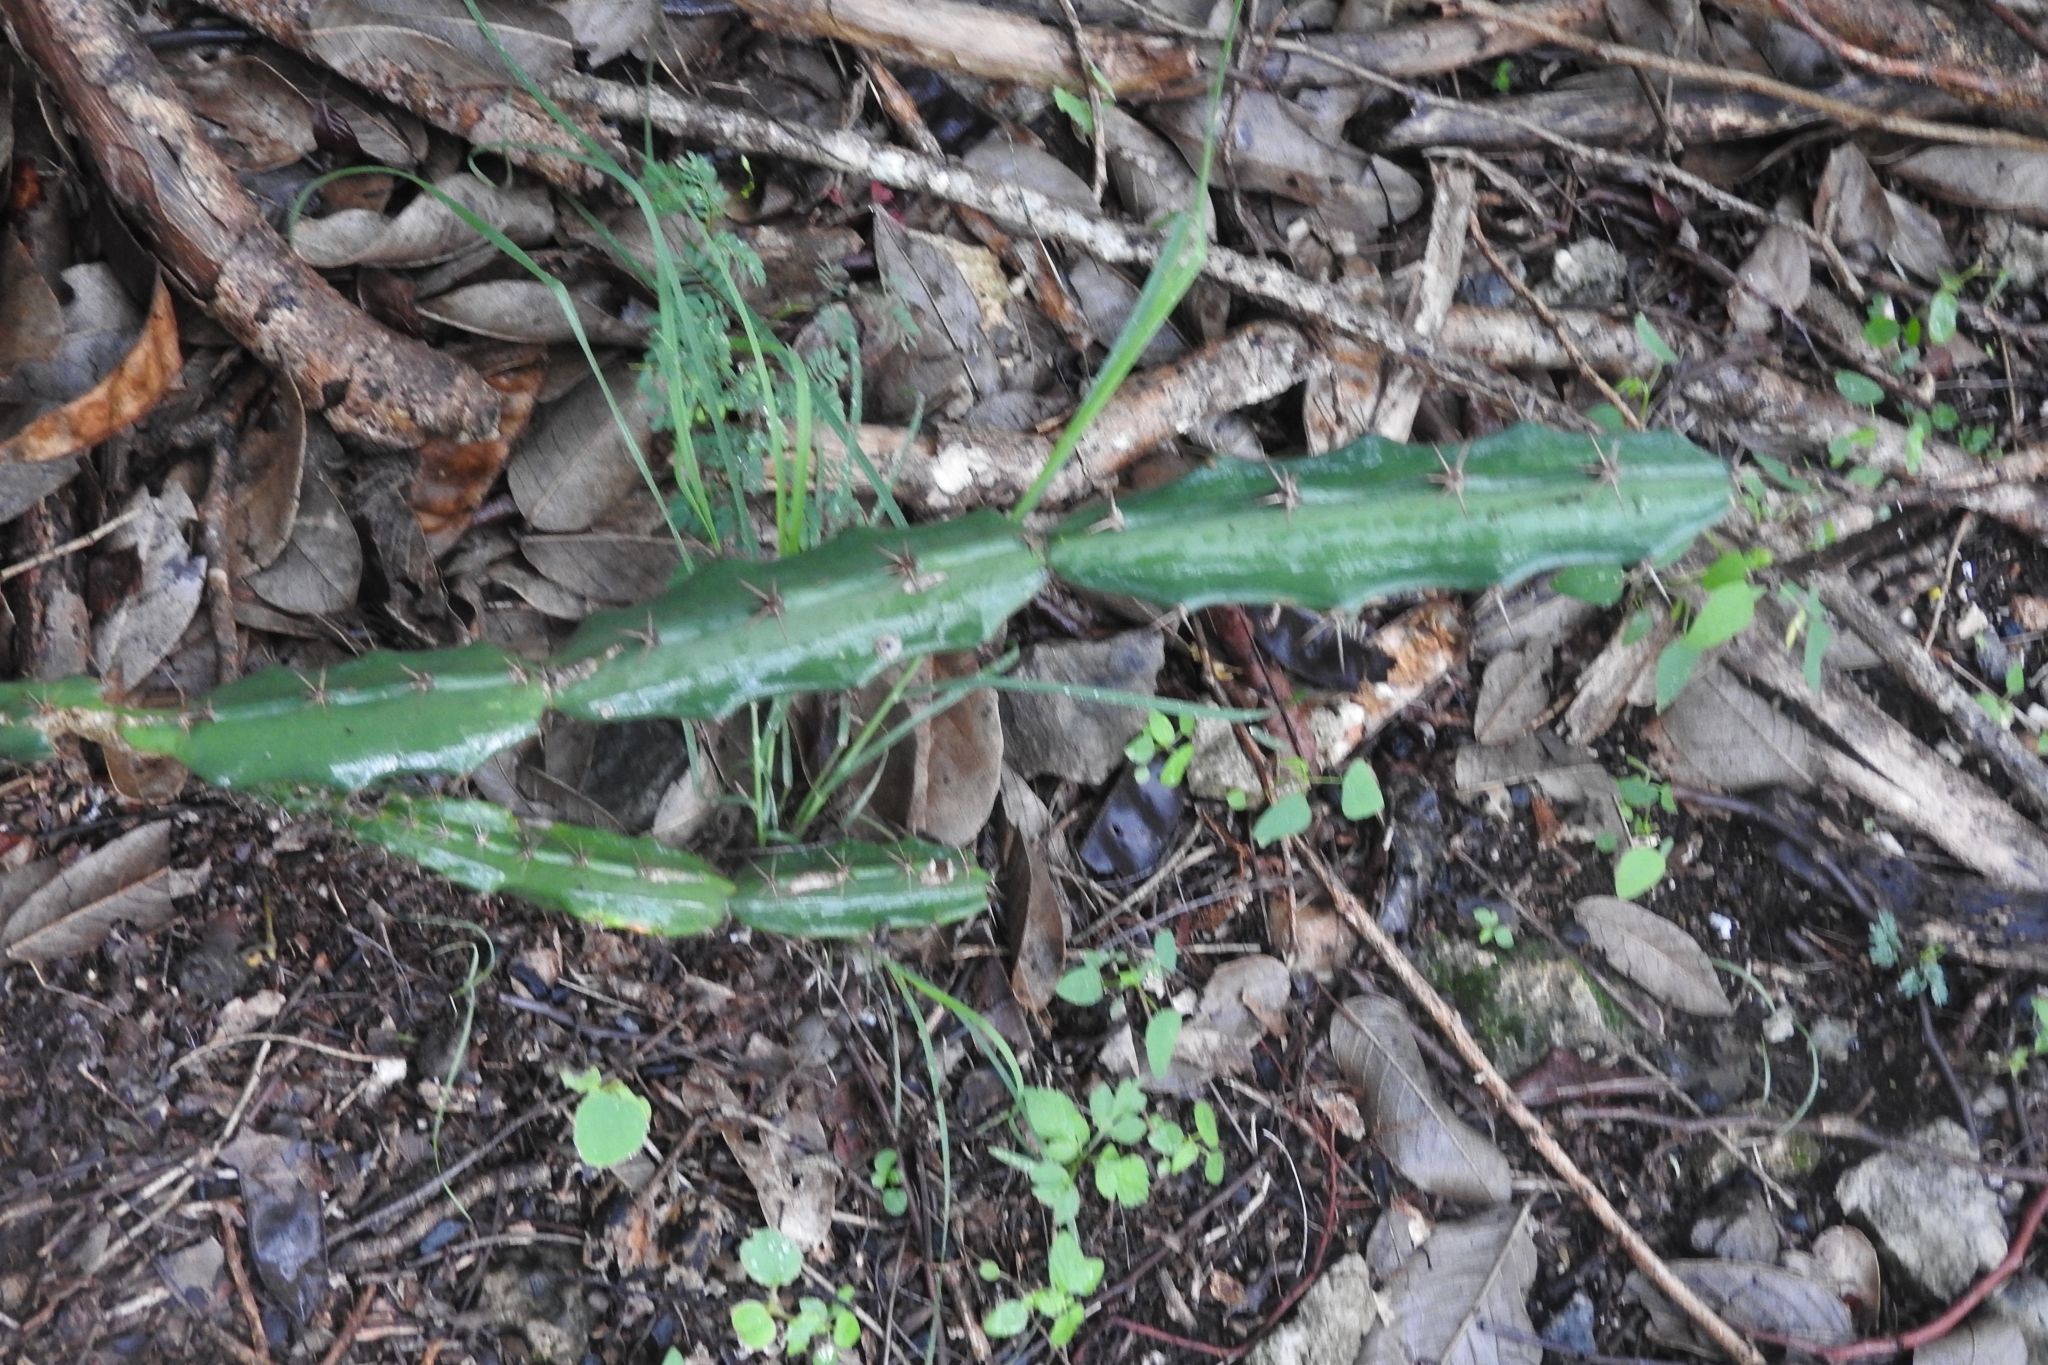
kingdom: Plantae
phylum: Tracheophyta
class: Magnoliopsida
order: Caryophyllales
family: Cactaceae
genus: Acanthocereus
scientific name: Acanthocereus tetragonus
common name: Triangle cactus
